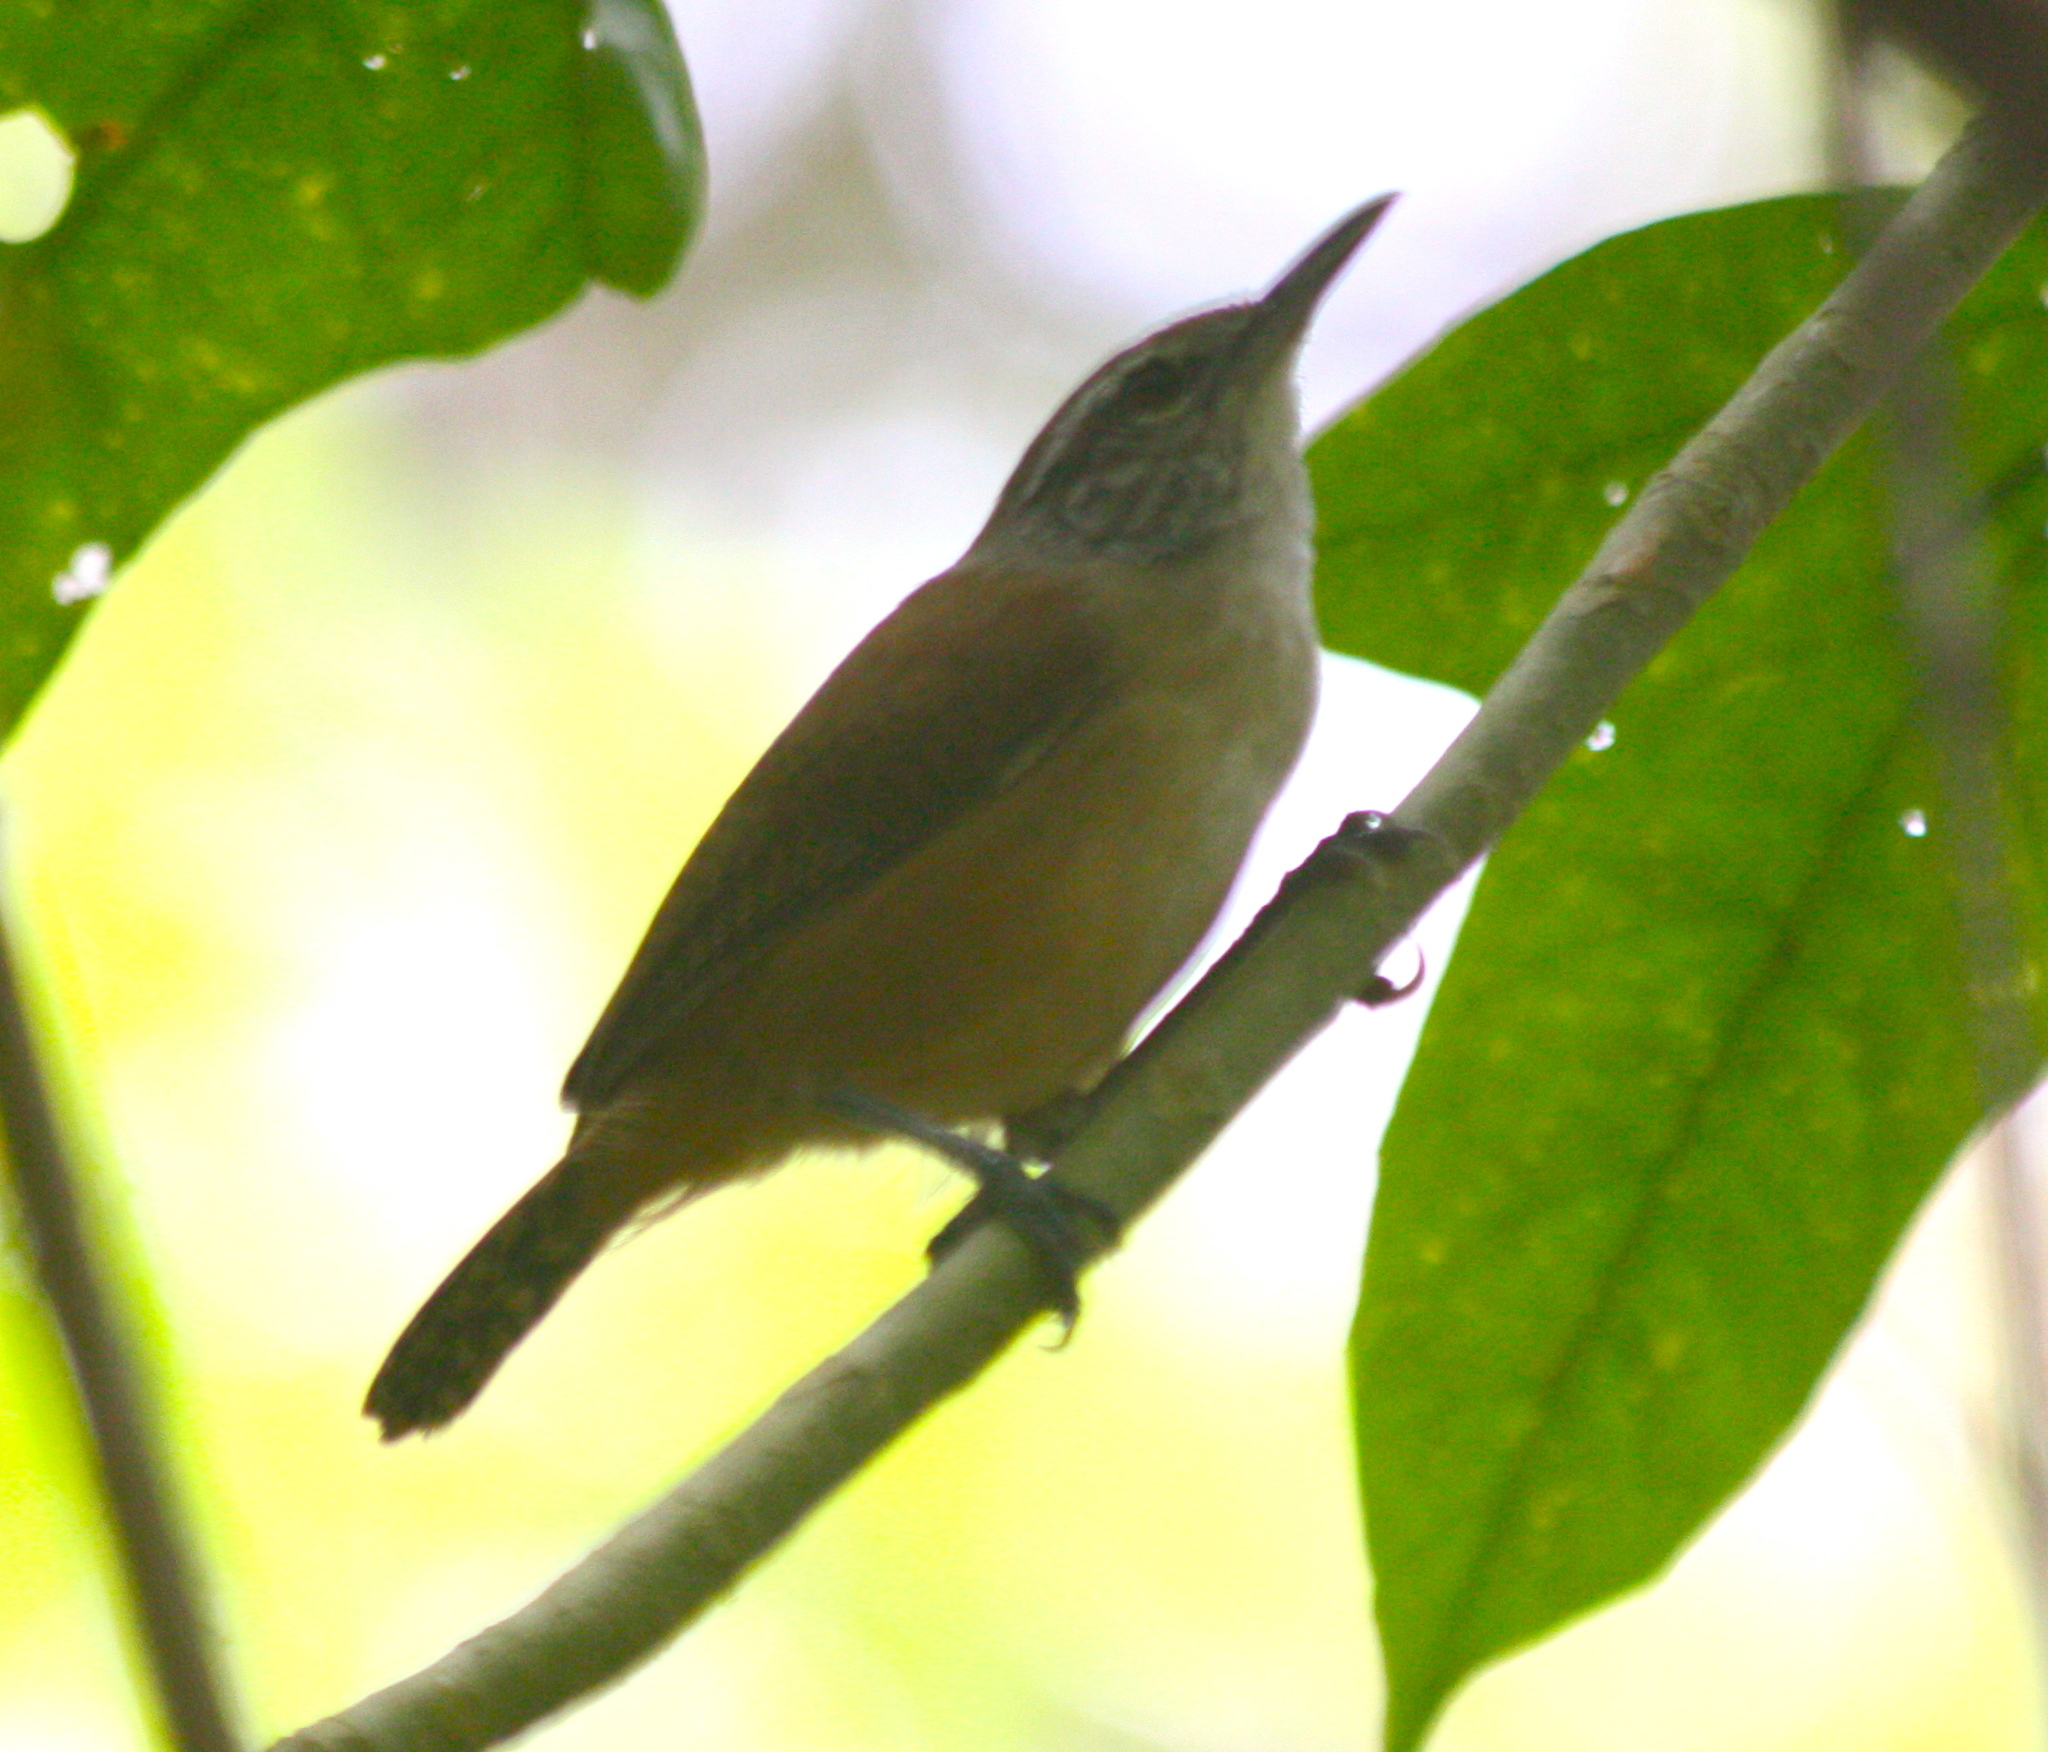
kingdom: Animalia
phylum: Chordata
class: Aves
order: Passeriformes
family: Troglodytidae
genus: Cantorchilus
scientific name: Cantorchilus leucotis
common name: Buff-breasted wren
